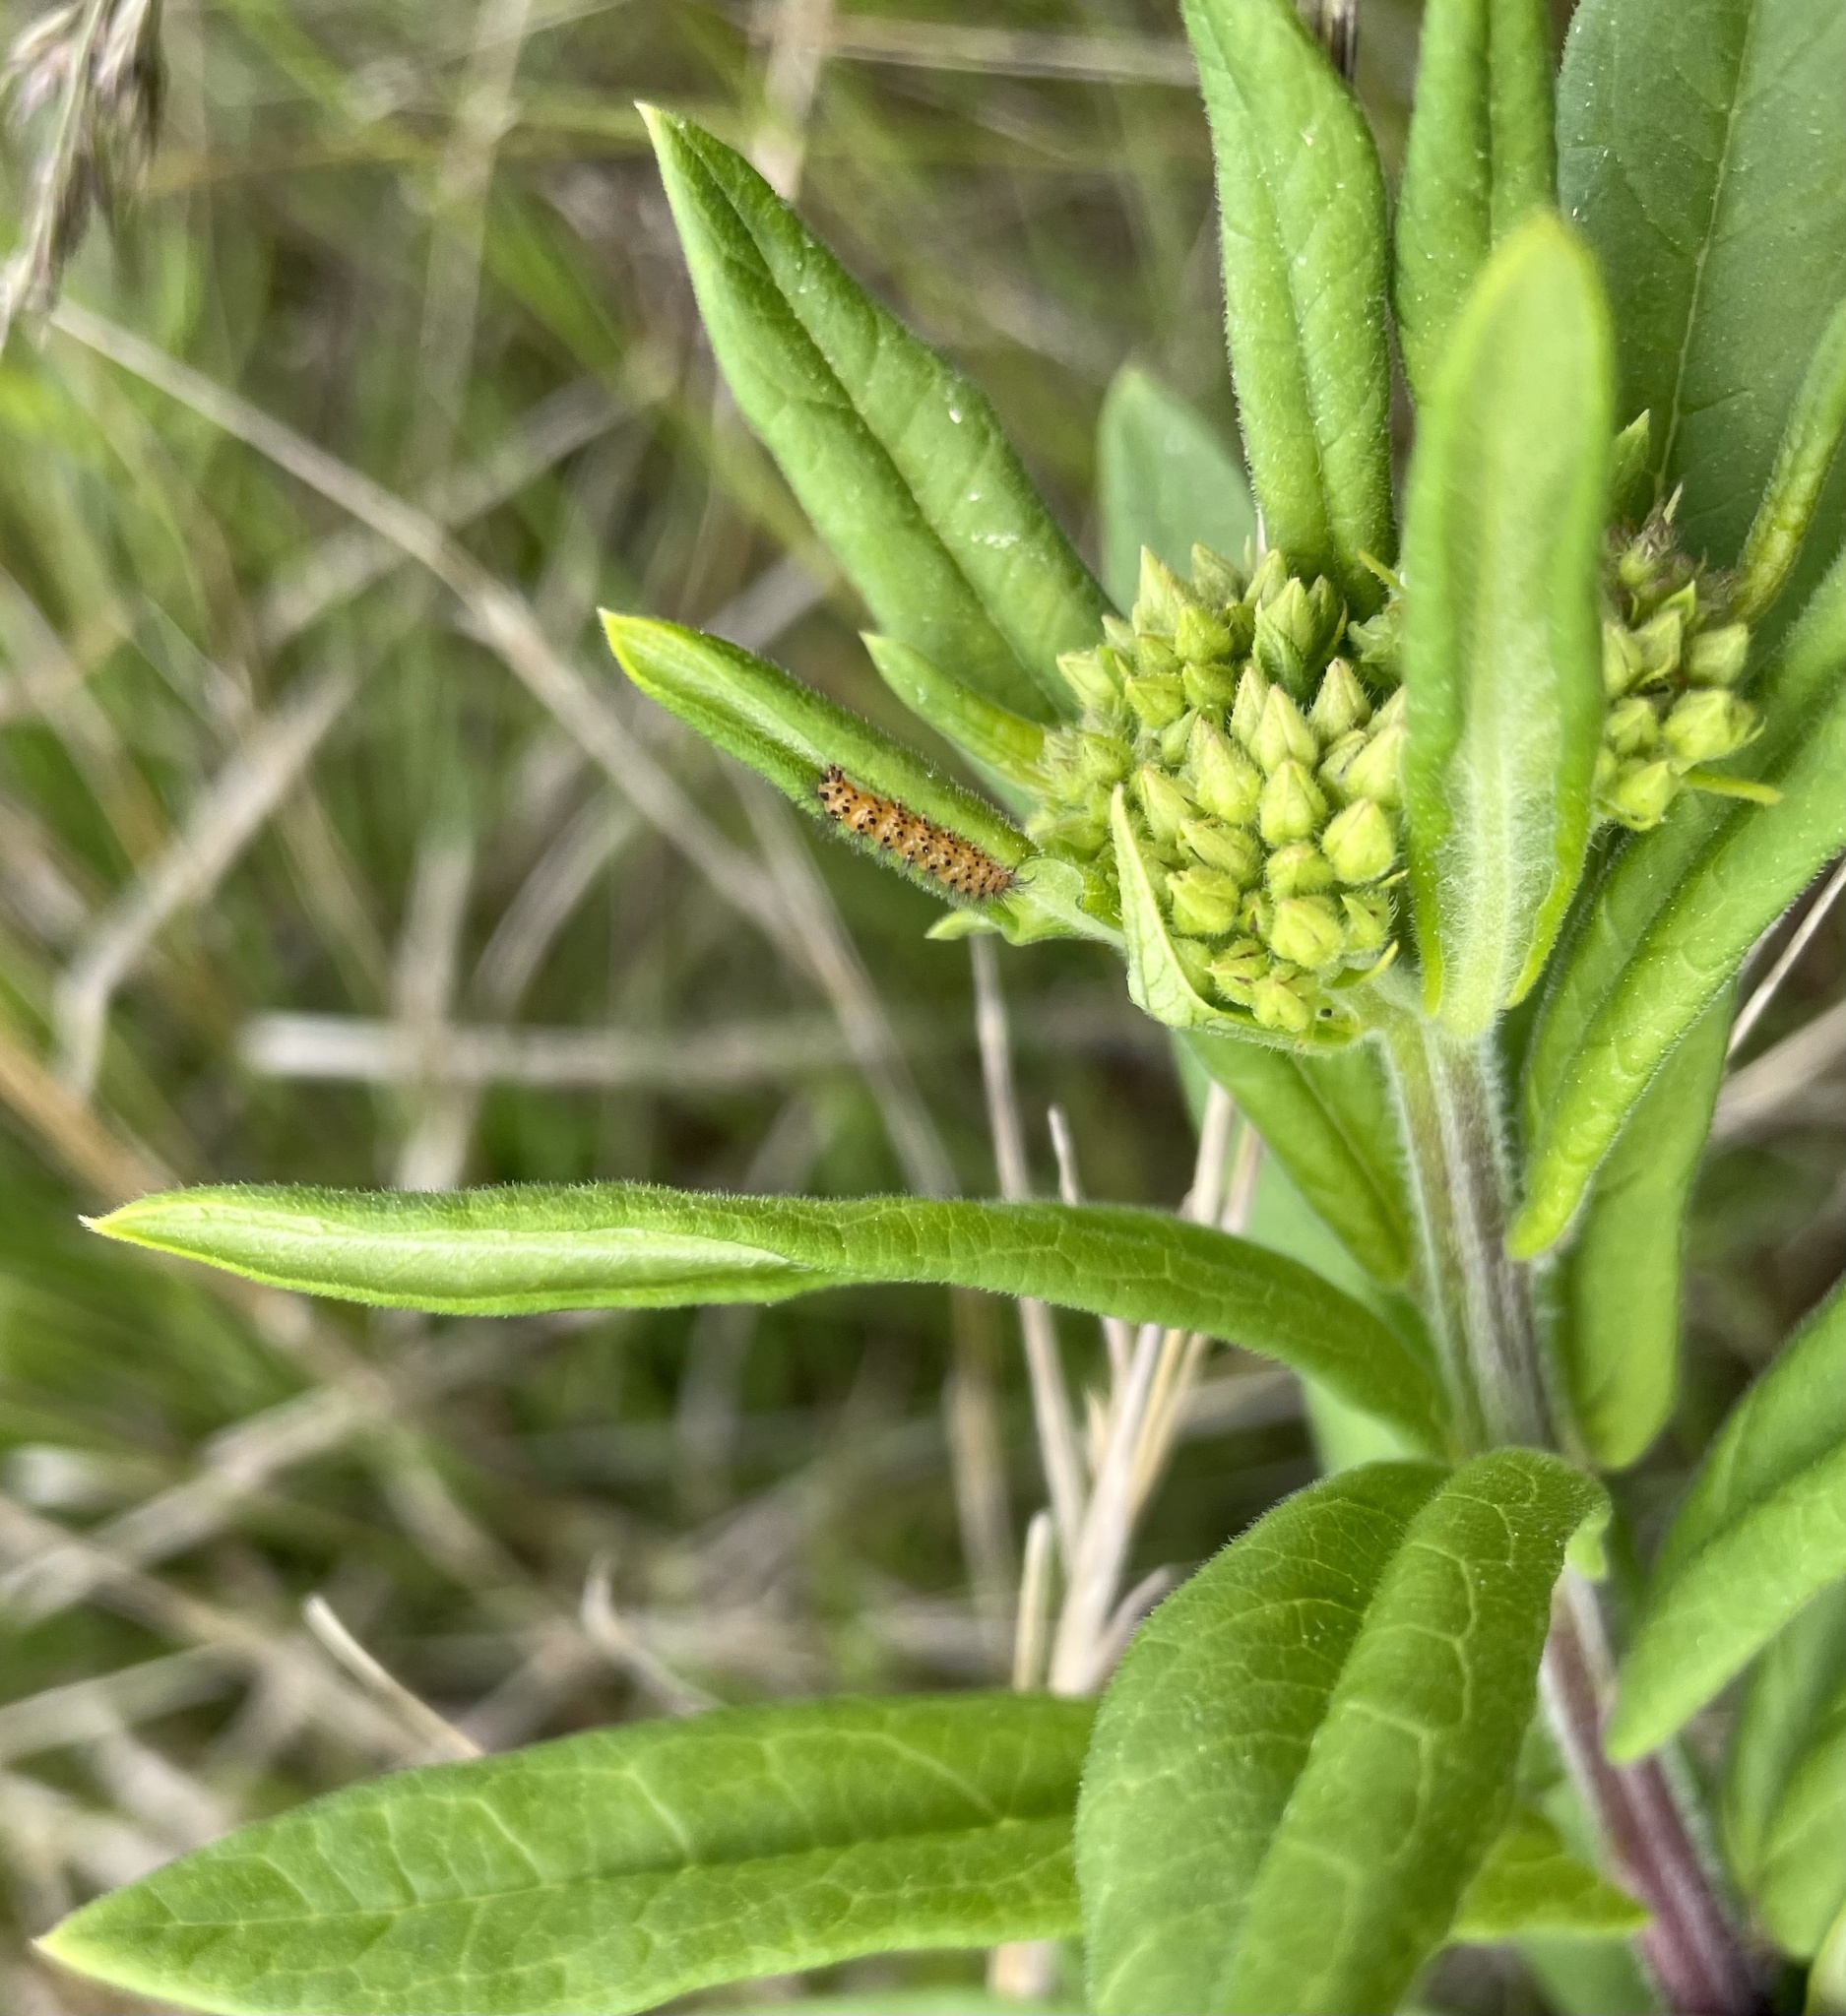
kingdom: Animalia
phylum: Arthropoda
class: Insecta
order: Lepidoptera
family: Erebidae
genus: Cycnia
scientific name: Cycnia collaris
